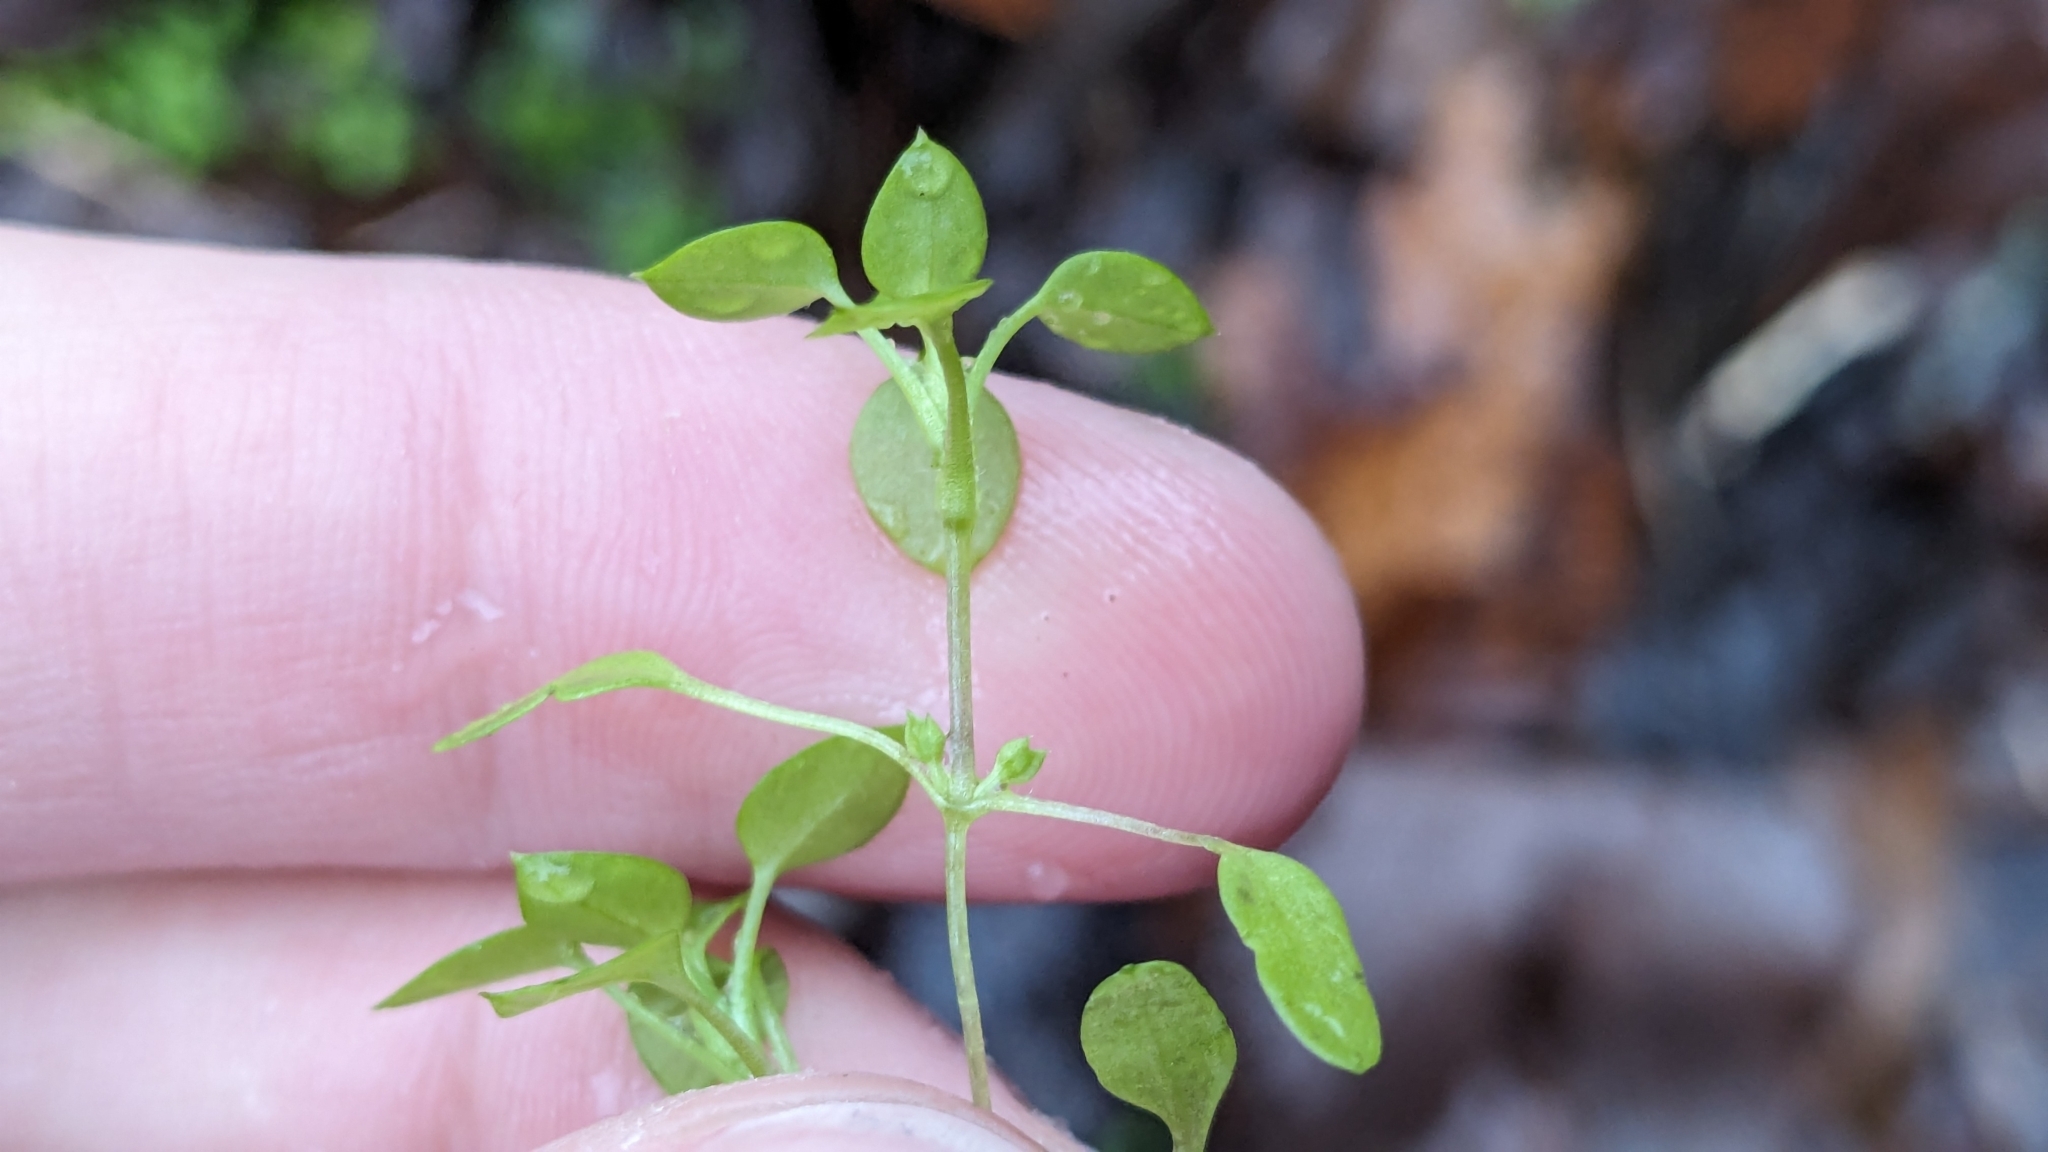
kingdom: Plantae
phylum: Tracheophyta
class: Magnoliopsida
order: Caryophyllales
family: Caryophyllaceae
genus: Stellaria
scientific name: Stellaria media
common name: Common chickweed
